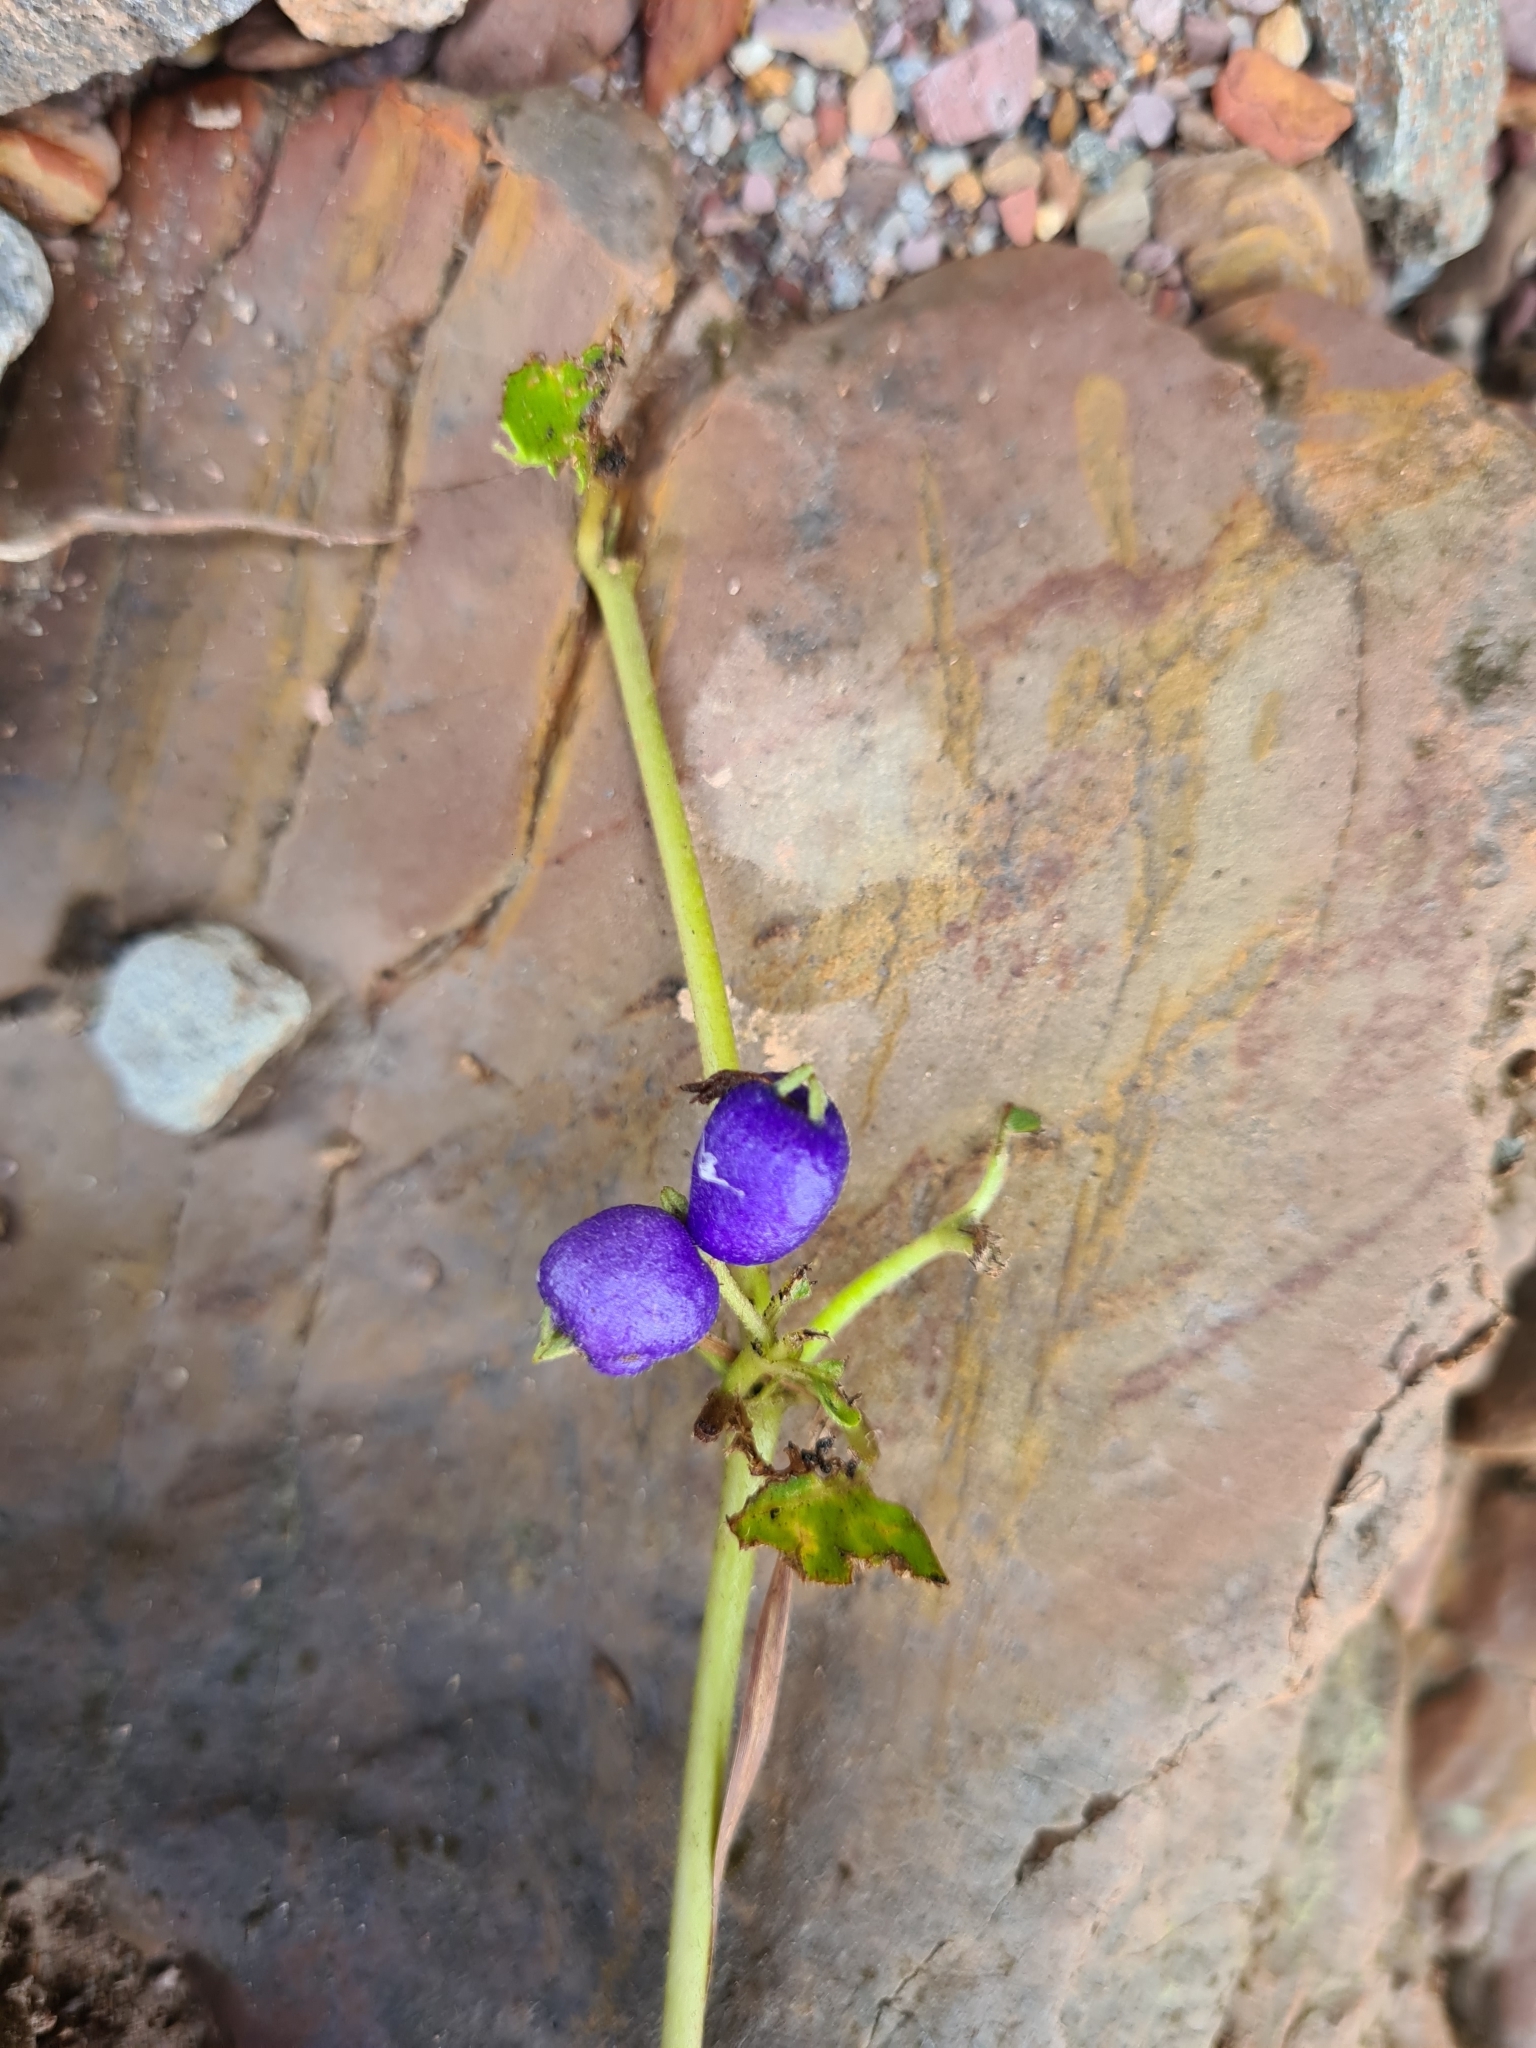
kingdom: Plantae
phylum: Tracheophyta
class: Magnoliopsida
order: Gentianales
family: Rubiaceae
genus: Coccocypselum
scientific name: Coccocypselum hirsutum
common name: Yerba de guava
